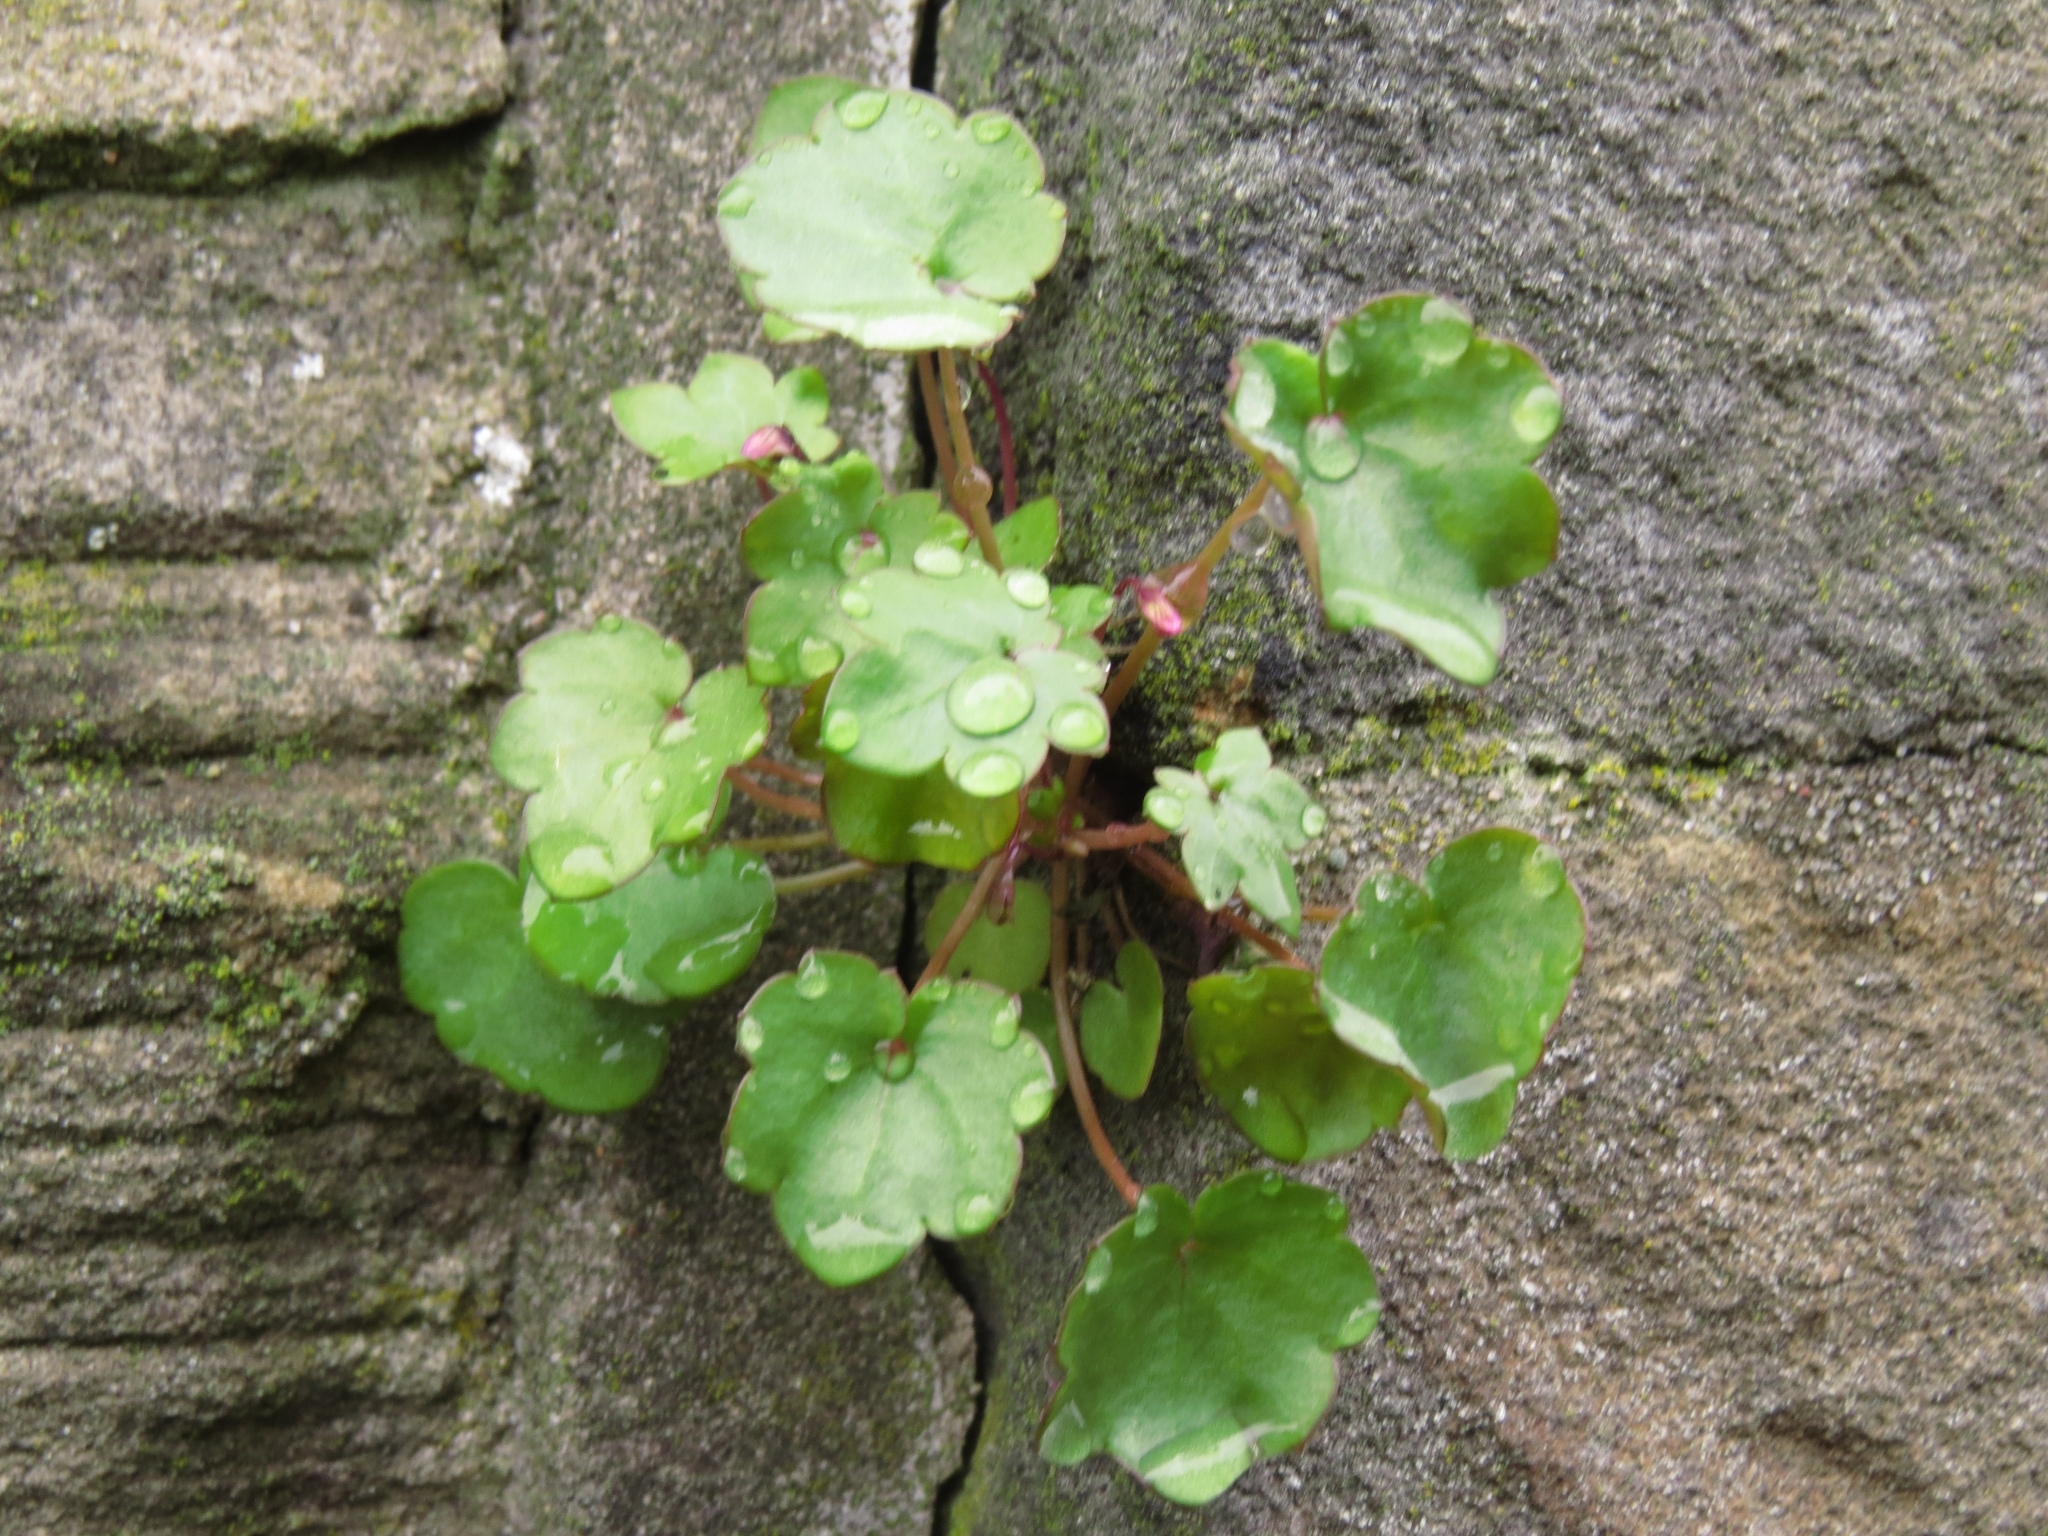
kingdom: Plantae
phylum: Tracheophyta
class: Magnoliopsida
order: Lamiales
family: Plantaginaceae
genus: Cymbalaria
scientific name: Cymbalaria muralis
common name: Ivy-leaved toadflax
